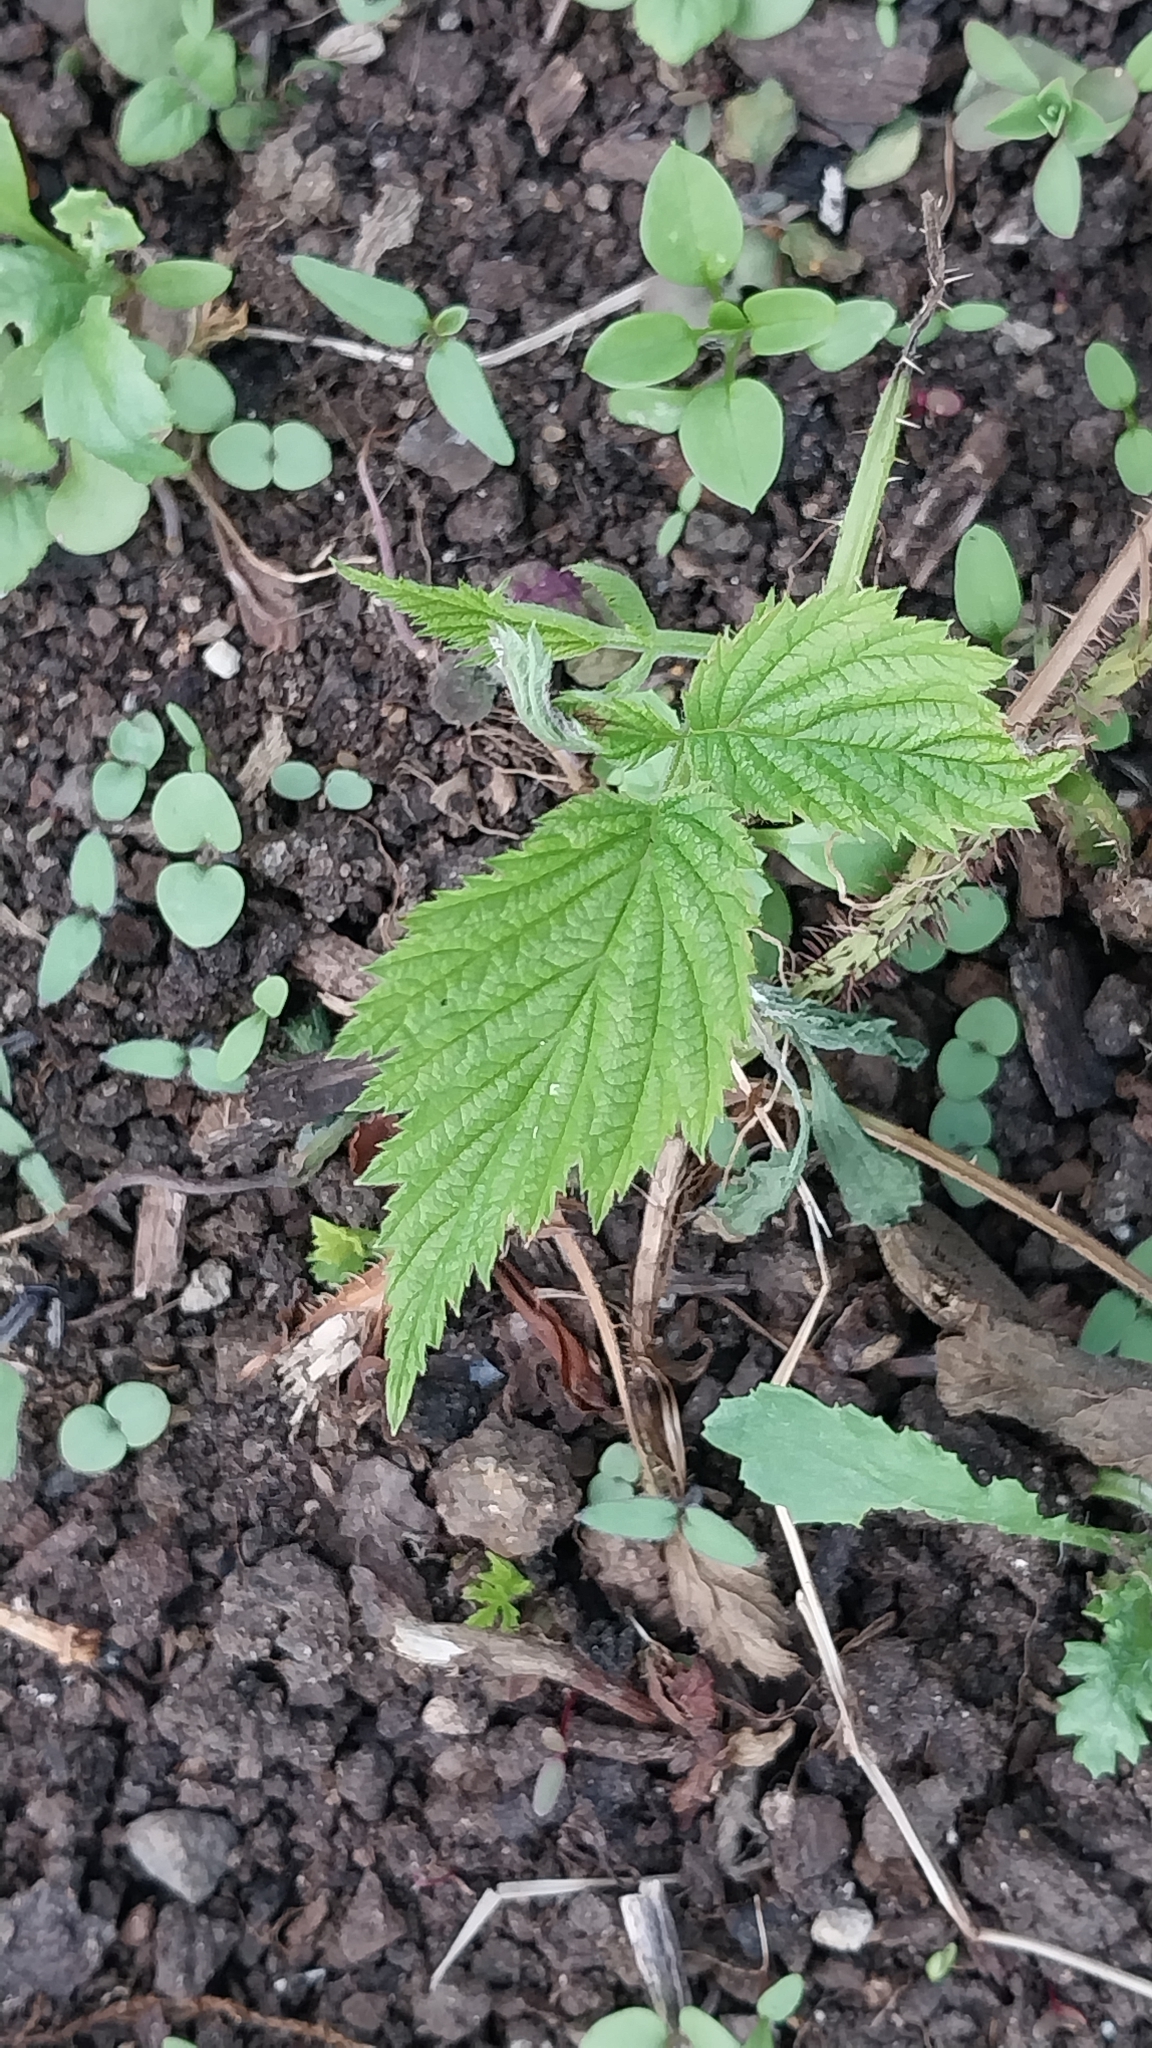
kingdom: Plantae
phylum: Tracheophyta
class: Magnoliopsida
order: Rosales
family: Rosaceae
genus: Rubus
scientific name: Rubus fruticosus
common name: Blackberry, bramble
